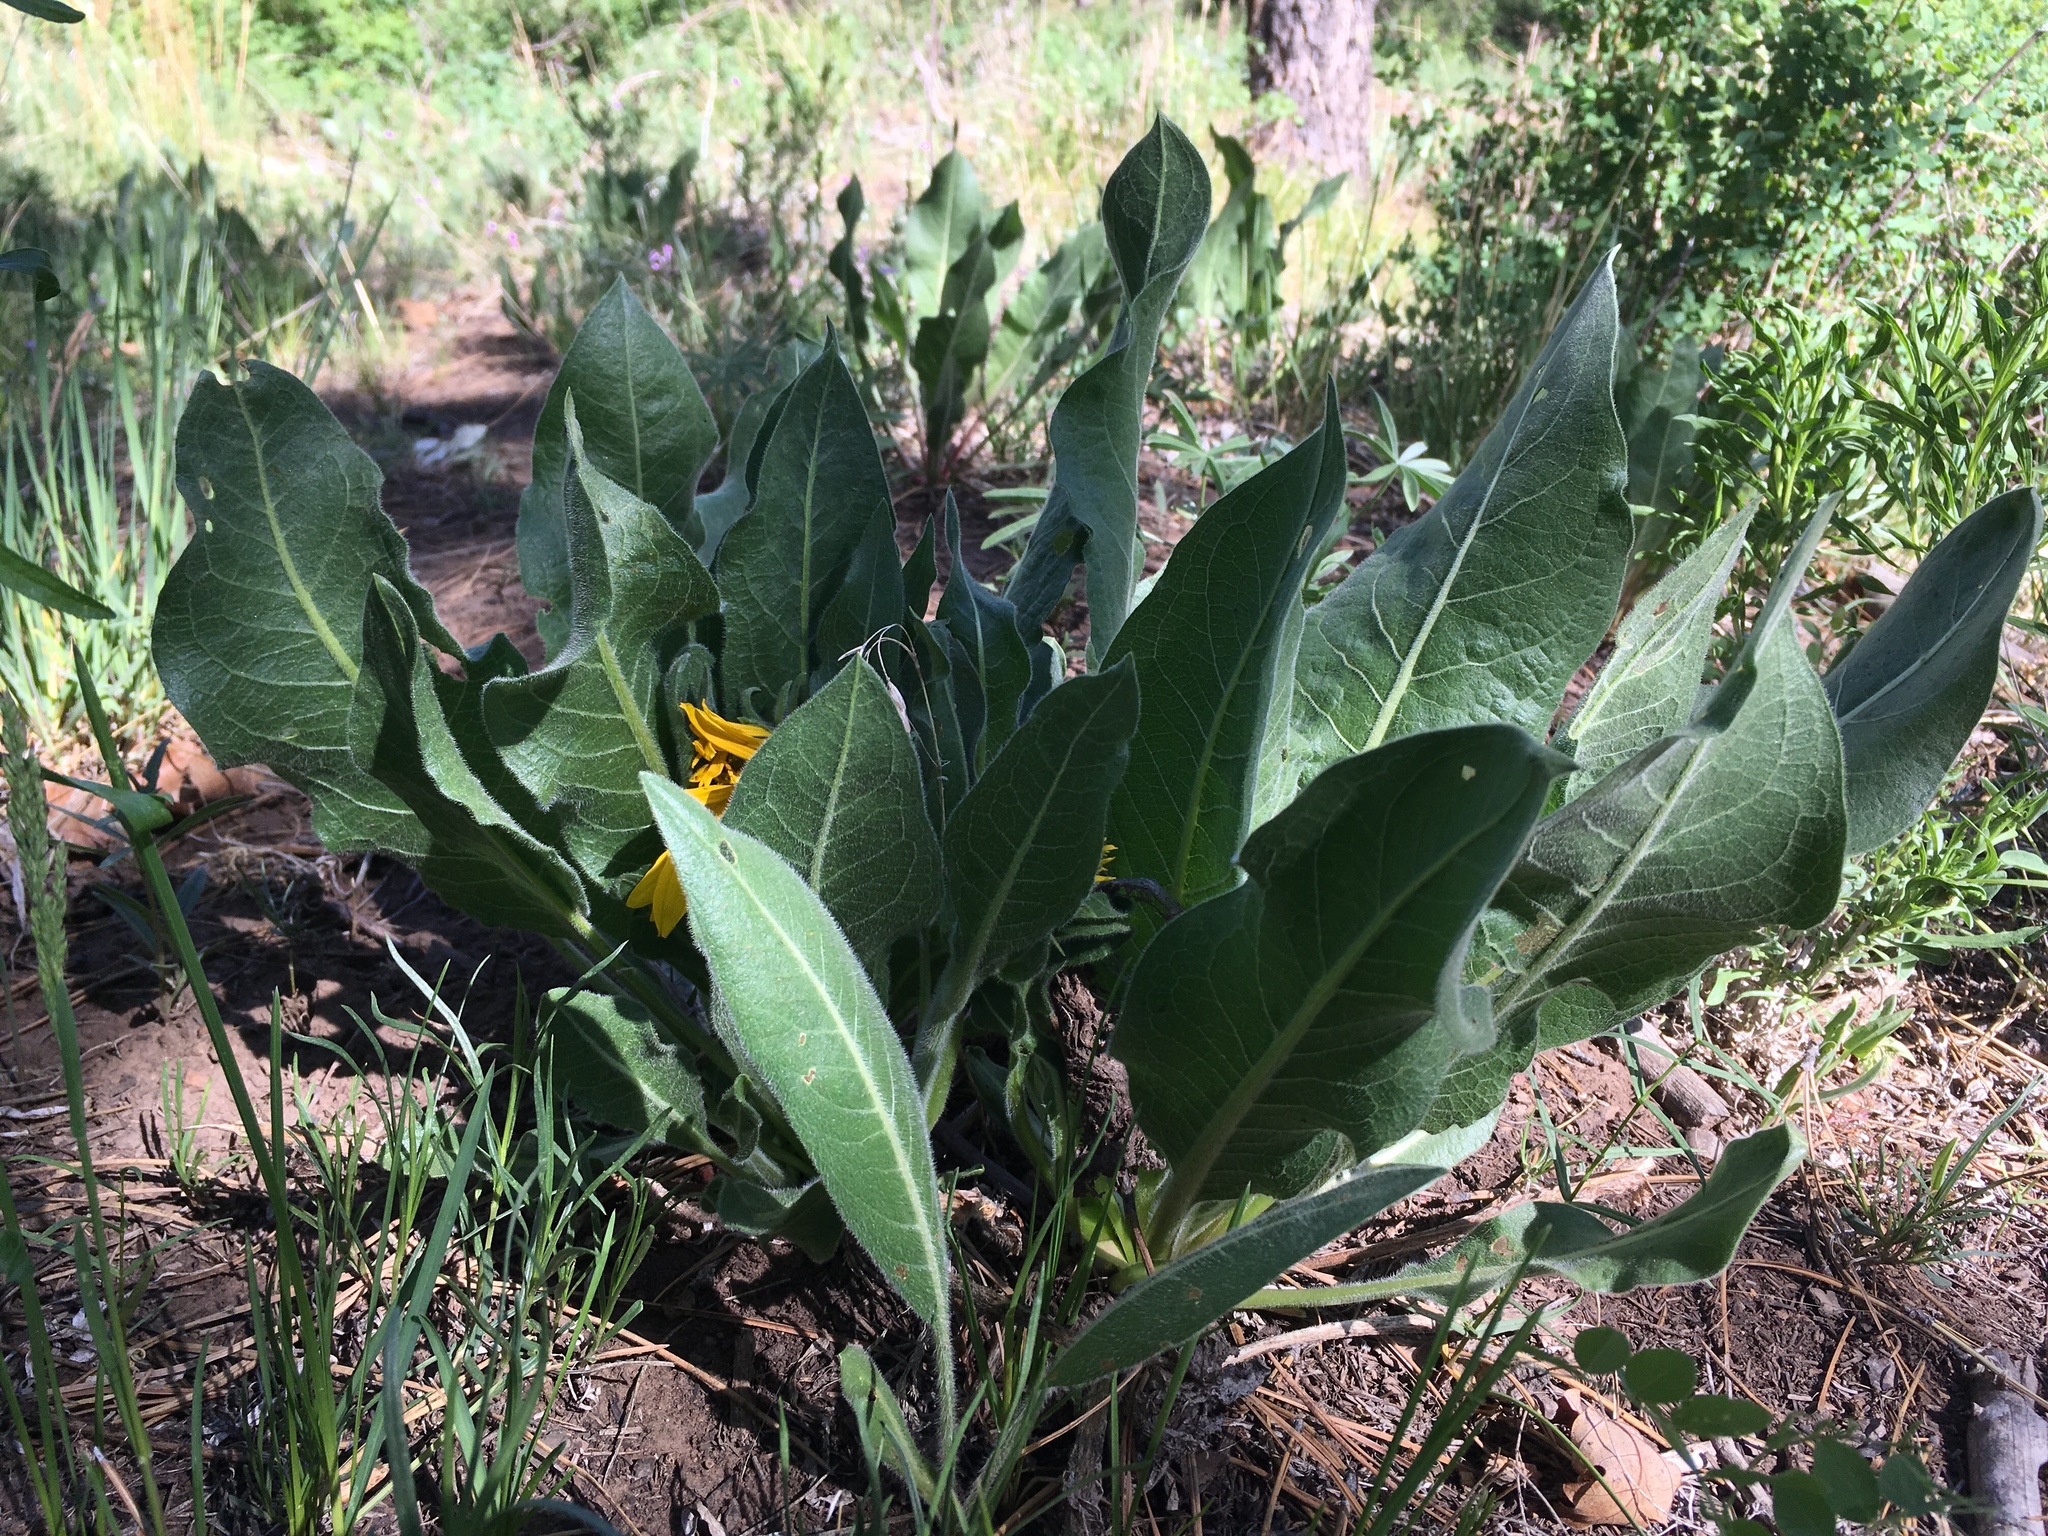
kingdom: Plantae
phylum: Tracheophyta
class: Magnoliopsida
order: Asterales
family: Asteraceae
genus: Wyethia
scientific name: Wyethia arizonica
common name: Arizona mule's-ears
